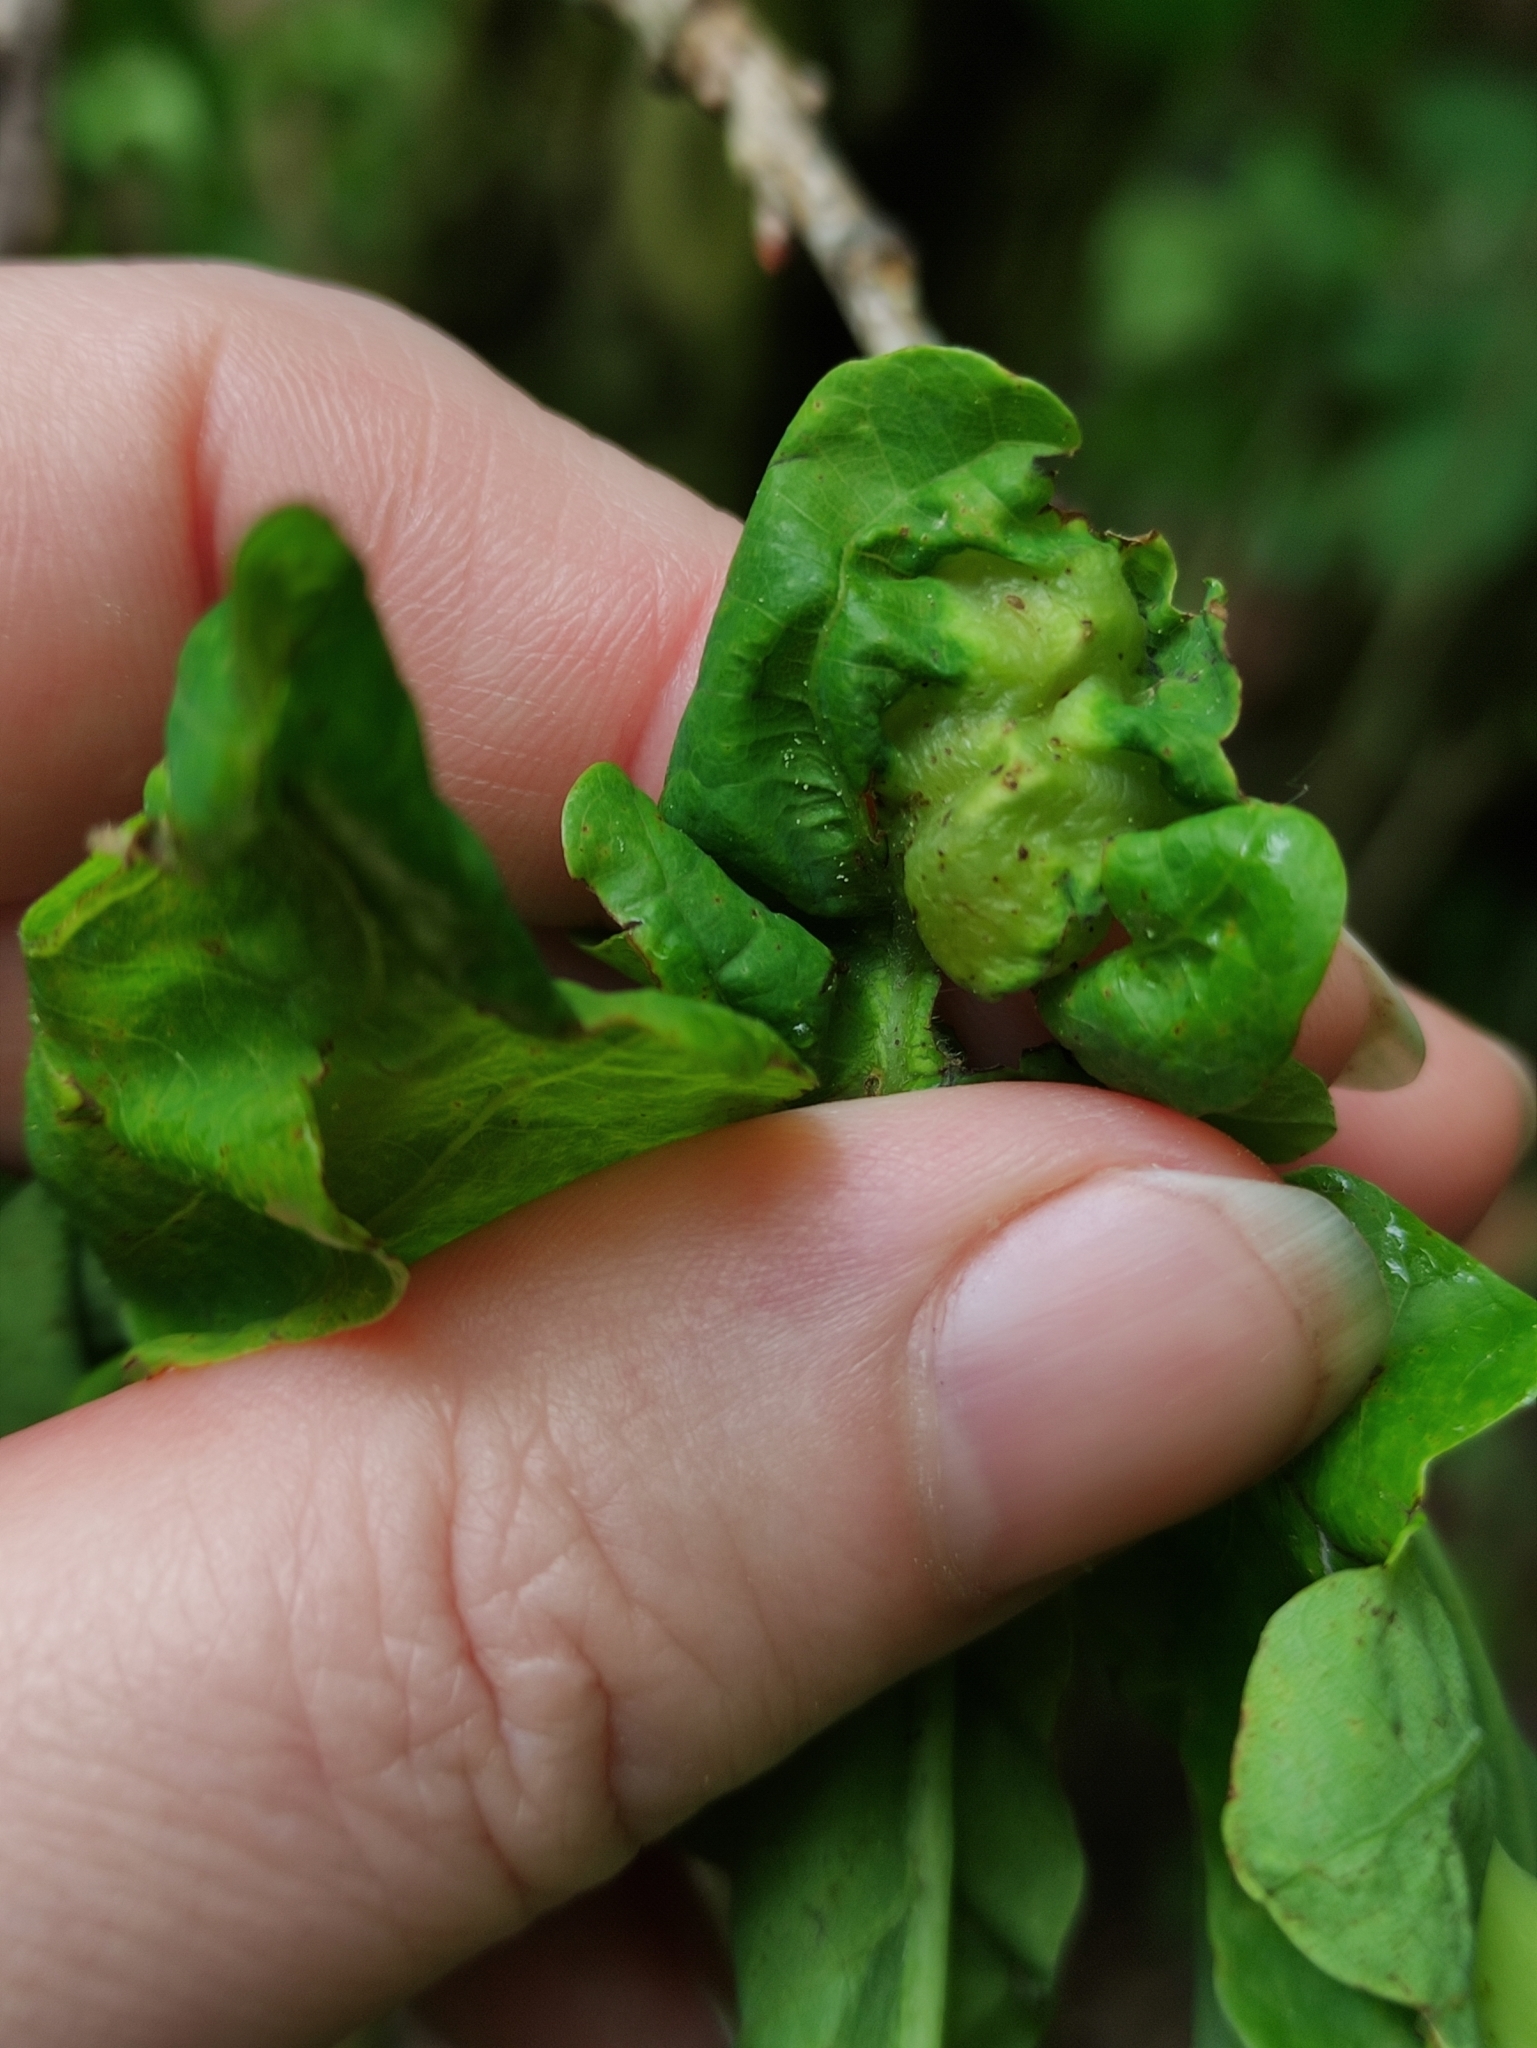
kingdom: Animalia
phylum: Arthropoda
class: Insecta
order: Hymenoptera
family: Cynipidae
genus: Andricus
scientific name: Andricus curvator
